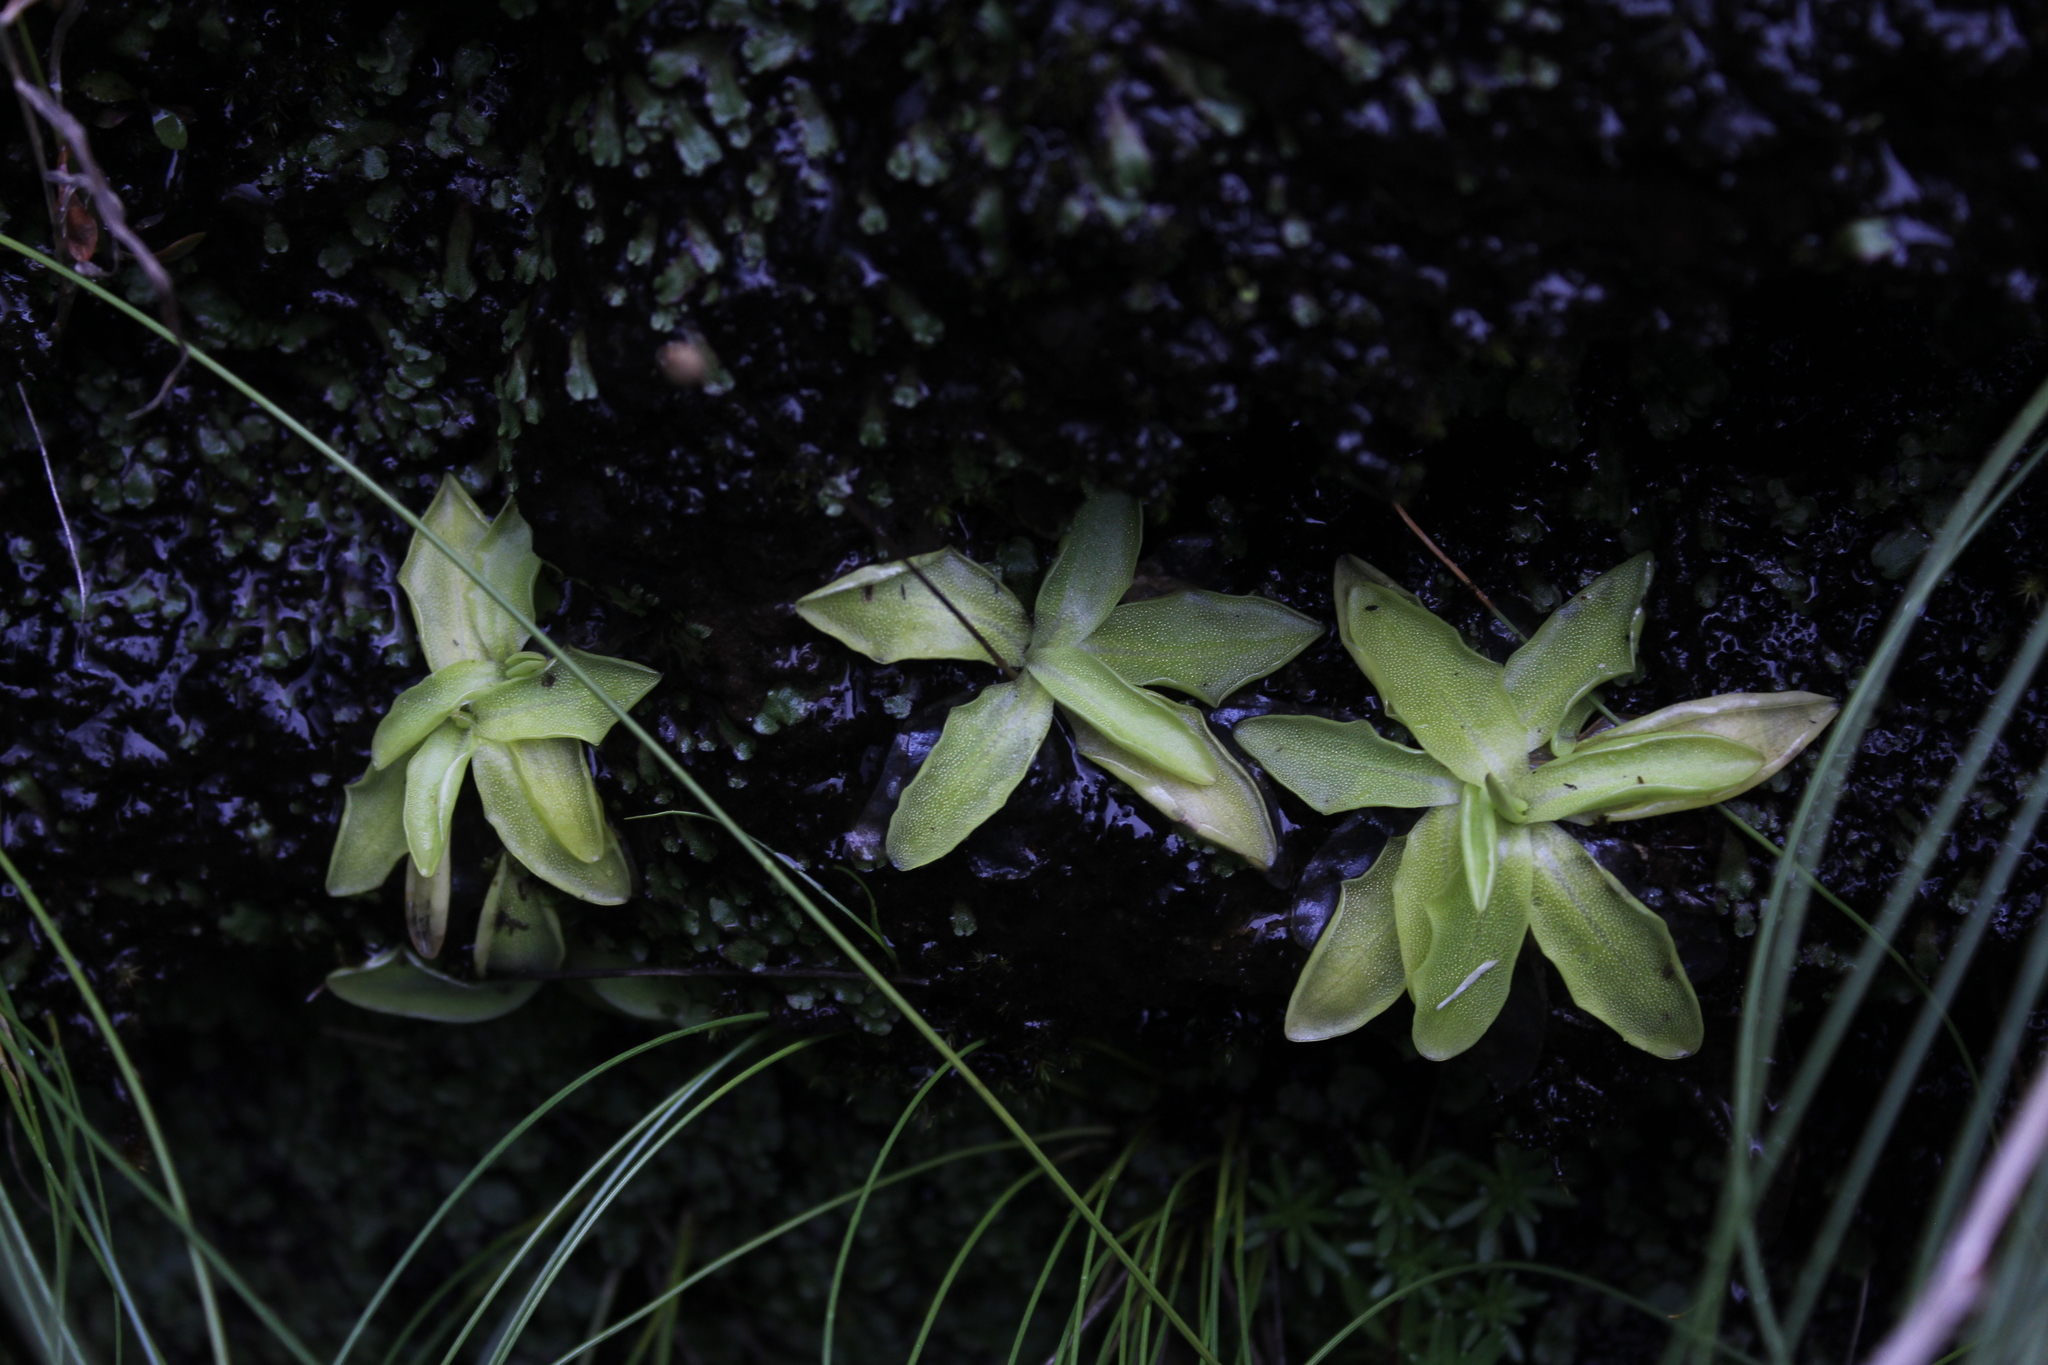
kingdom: Plantae
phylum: Tracheophyta
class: Magnoliopsida
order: Lamiales
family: Lentibulariaceae
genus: Pinguicula
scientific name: Pinguicula vulgaris
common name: Common butterwort
